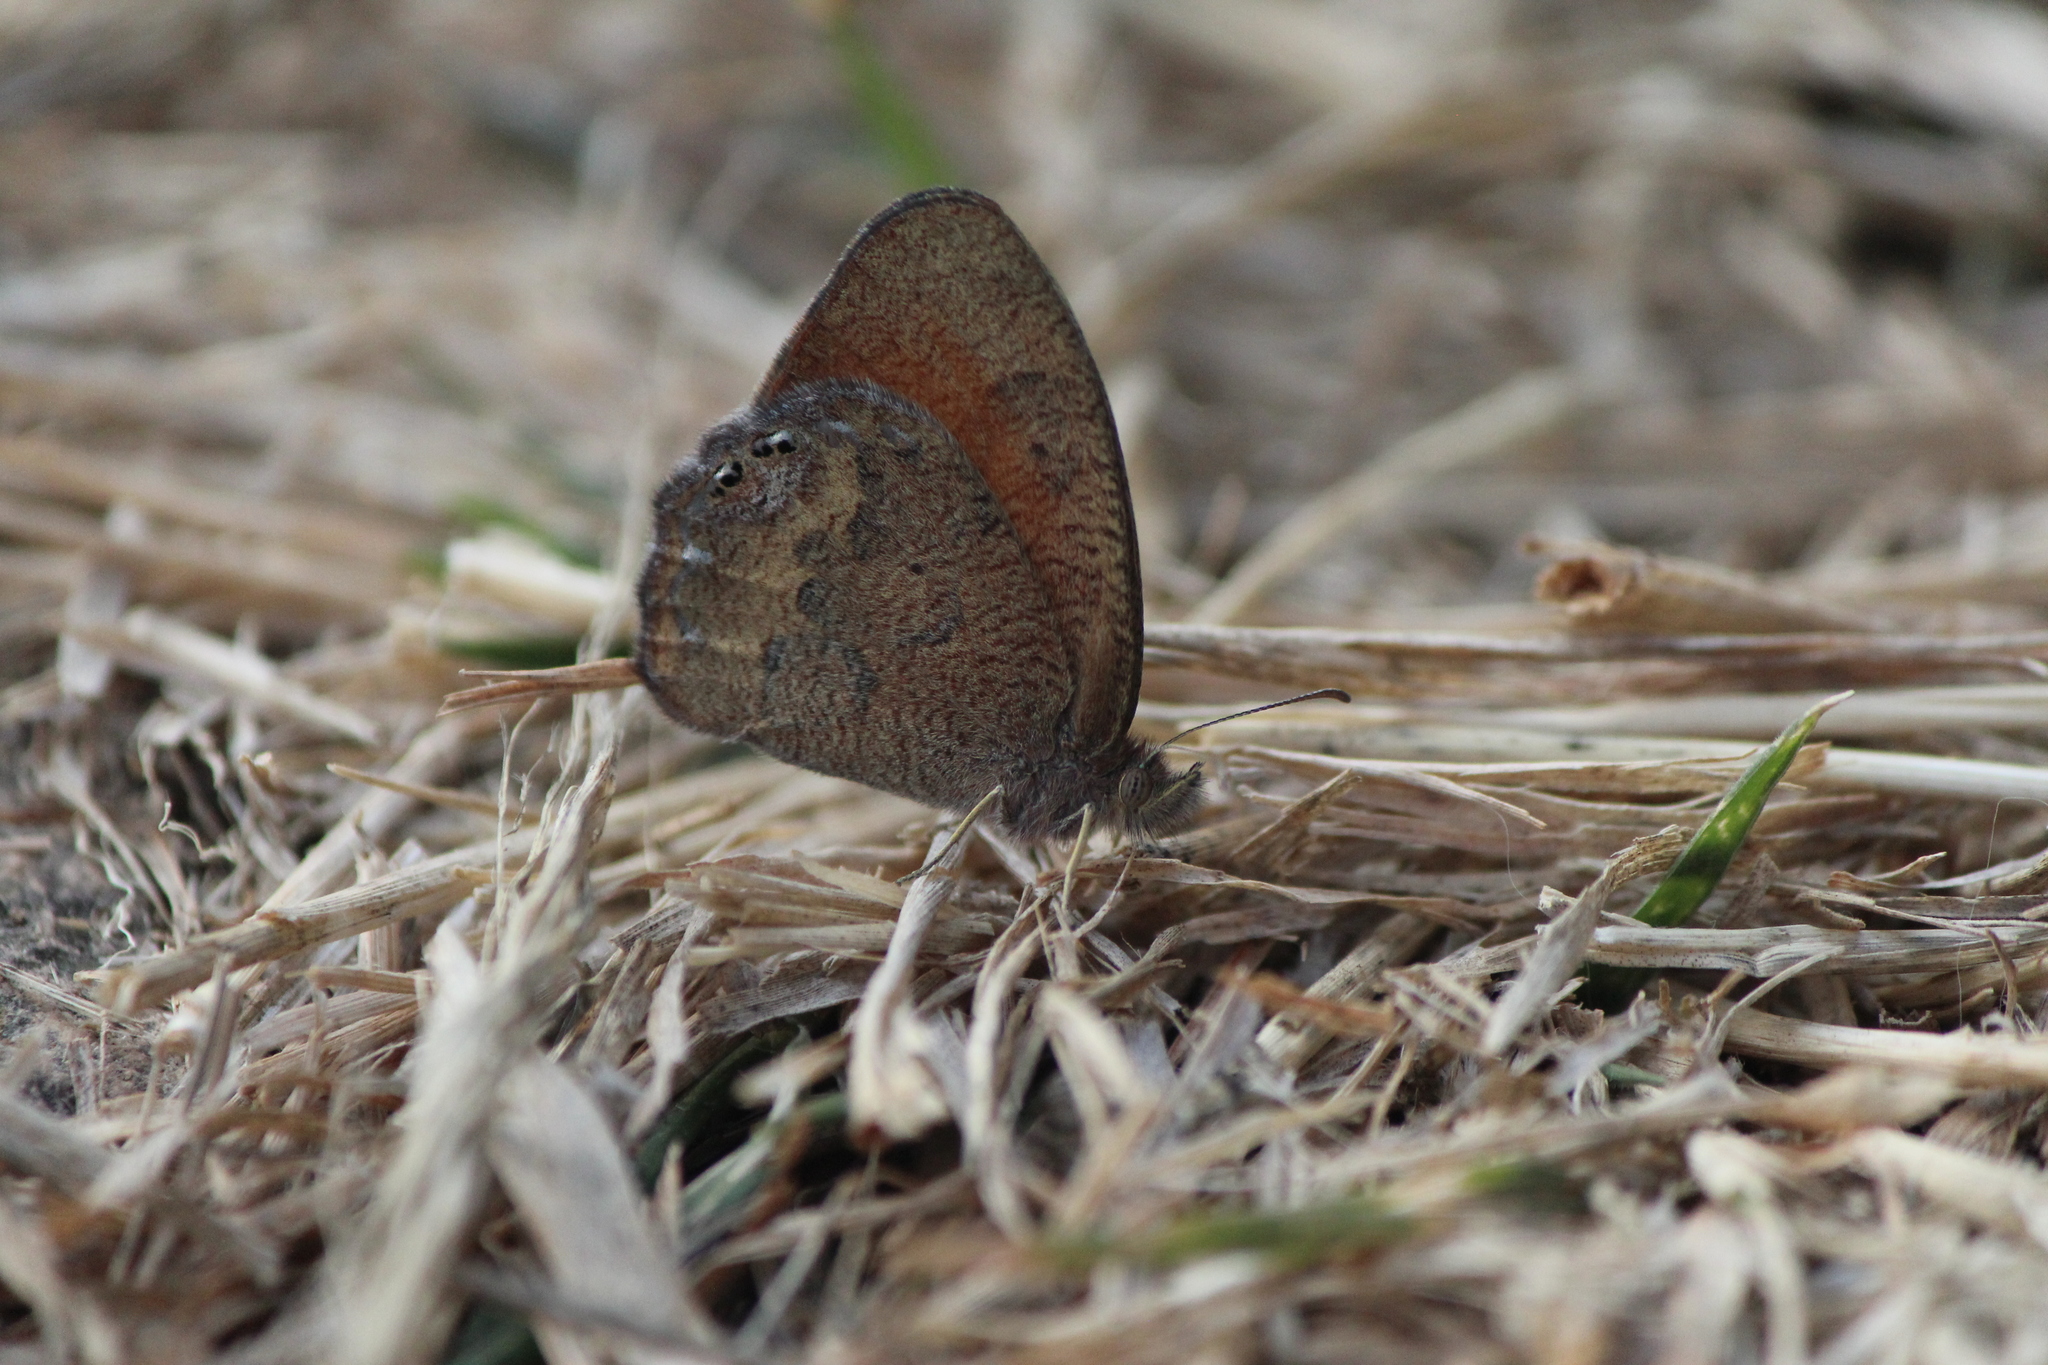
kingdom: Animalia
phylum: Arthropoda
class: Insecta
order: Lepidoptera
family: Nymphalidae
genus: Euptychia
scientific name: Euptychia Cyllopsis pertepida
